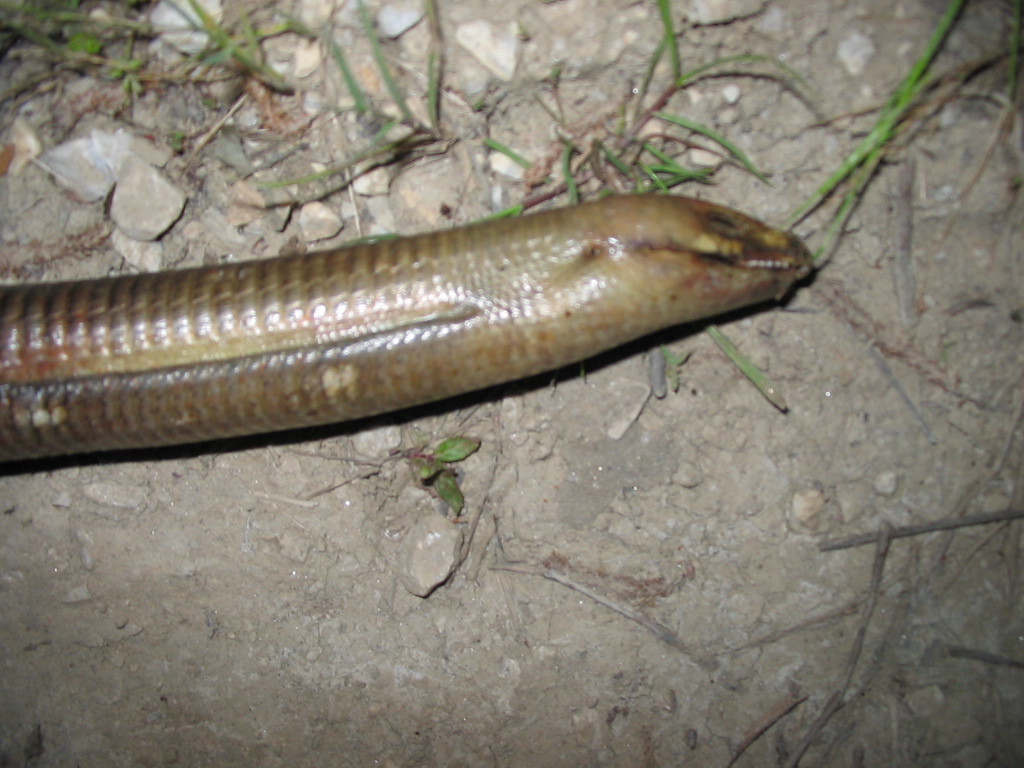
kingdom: Animalia
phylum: Chordata
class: Squamata
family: Anguidae
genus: Pseudopus
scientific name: Pseudopus apodus
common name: European glass lizard
